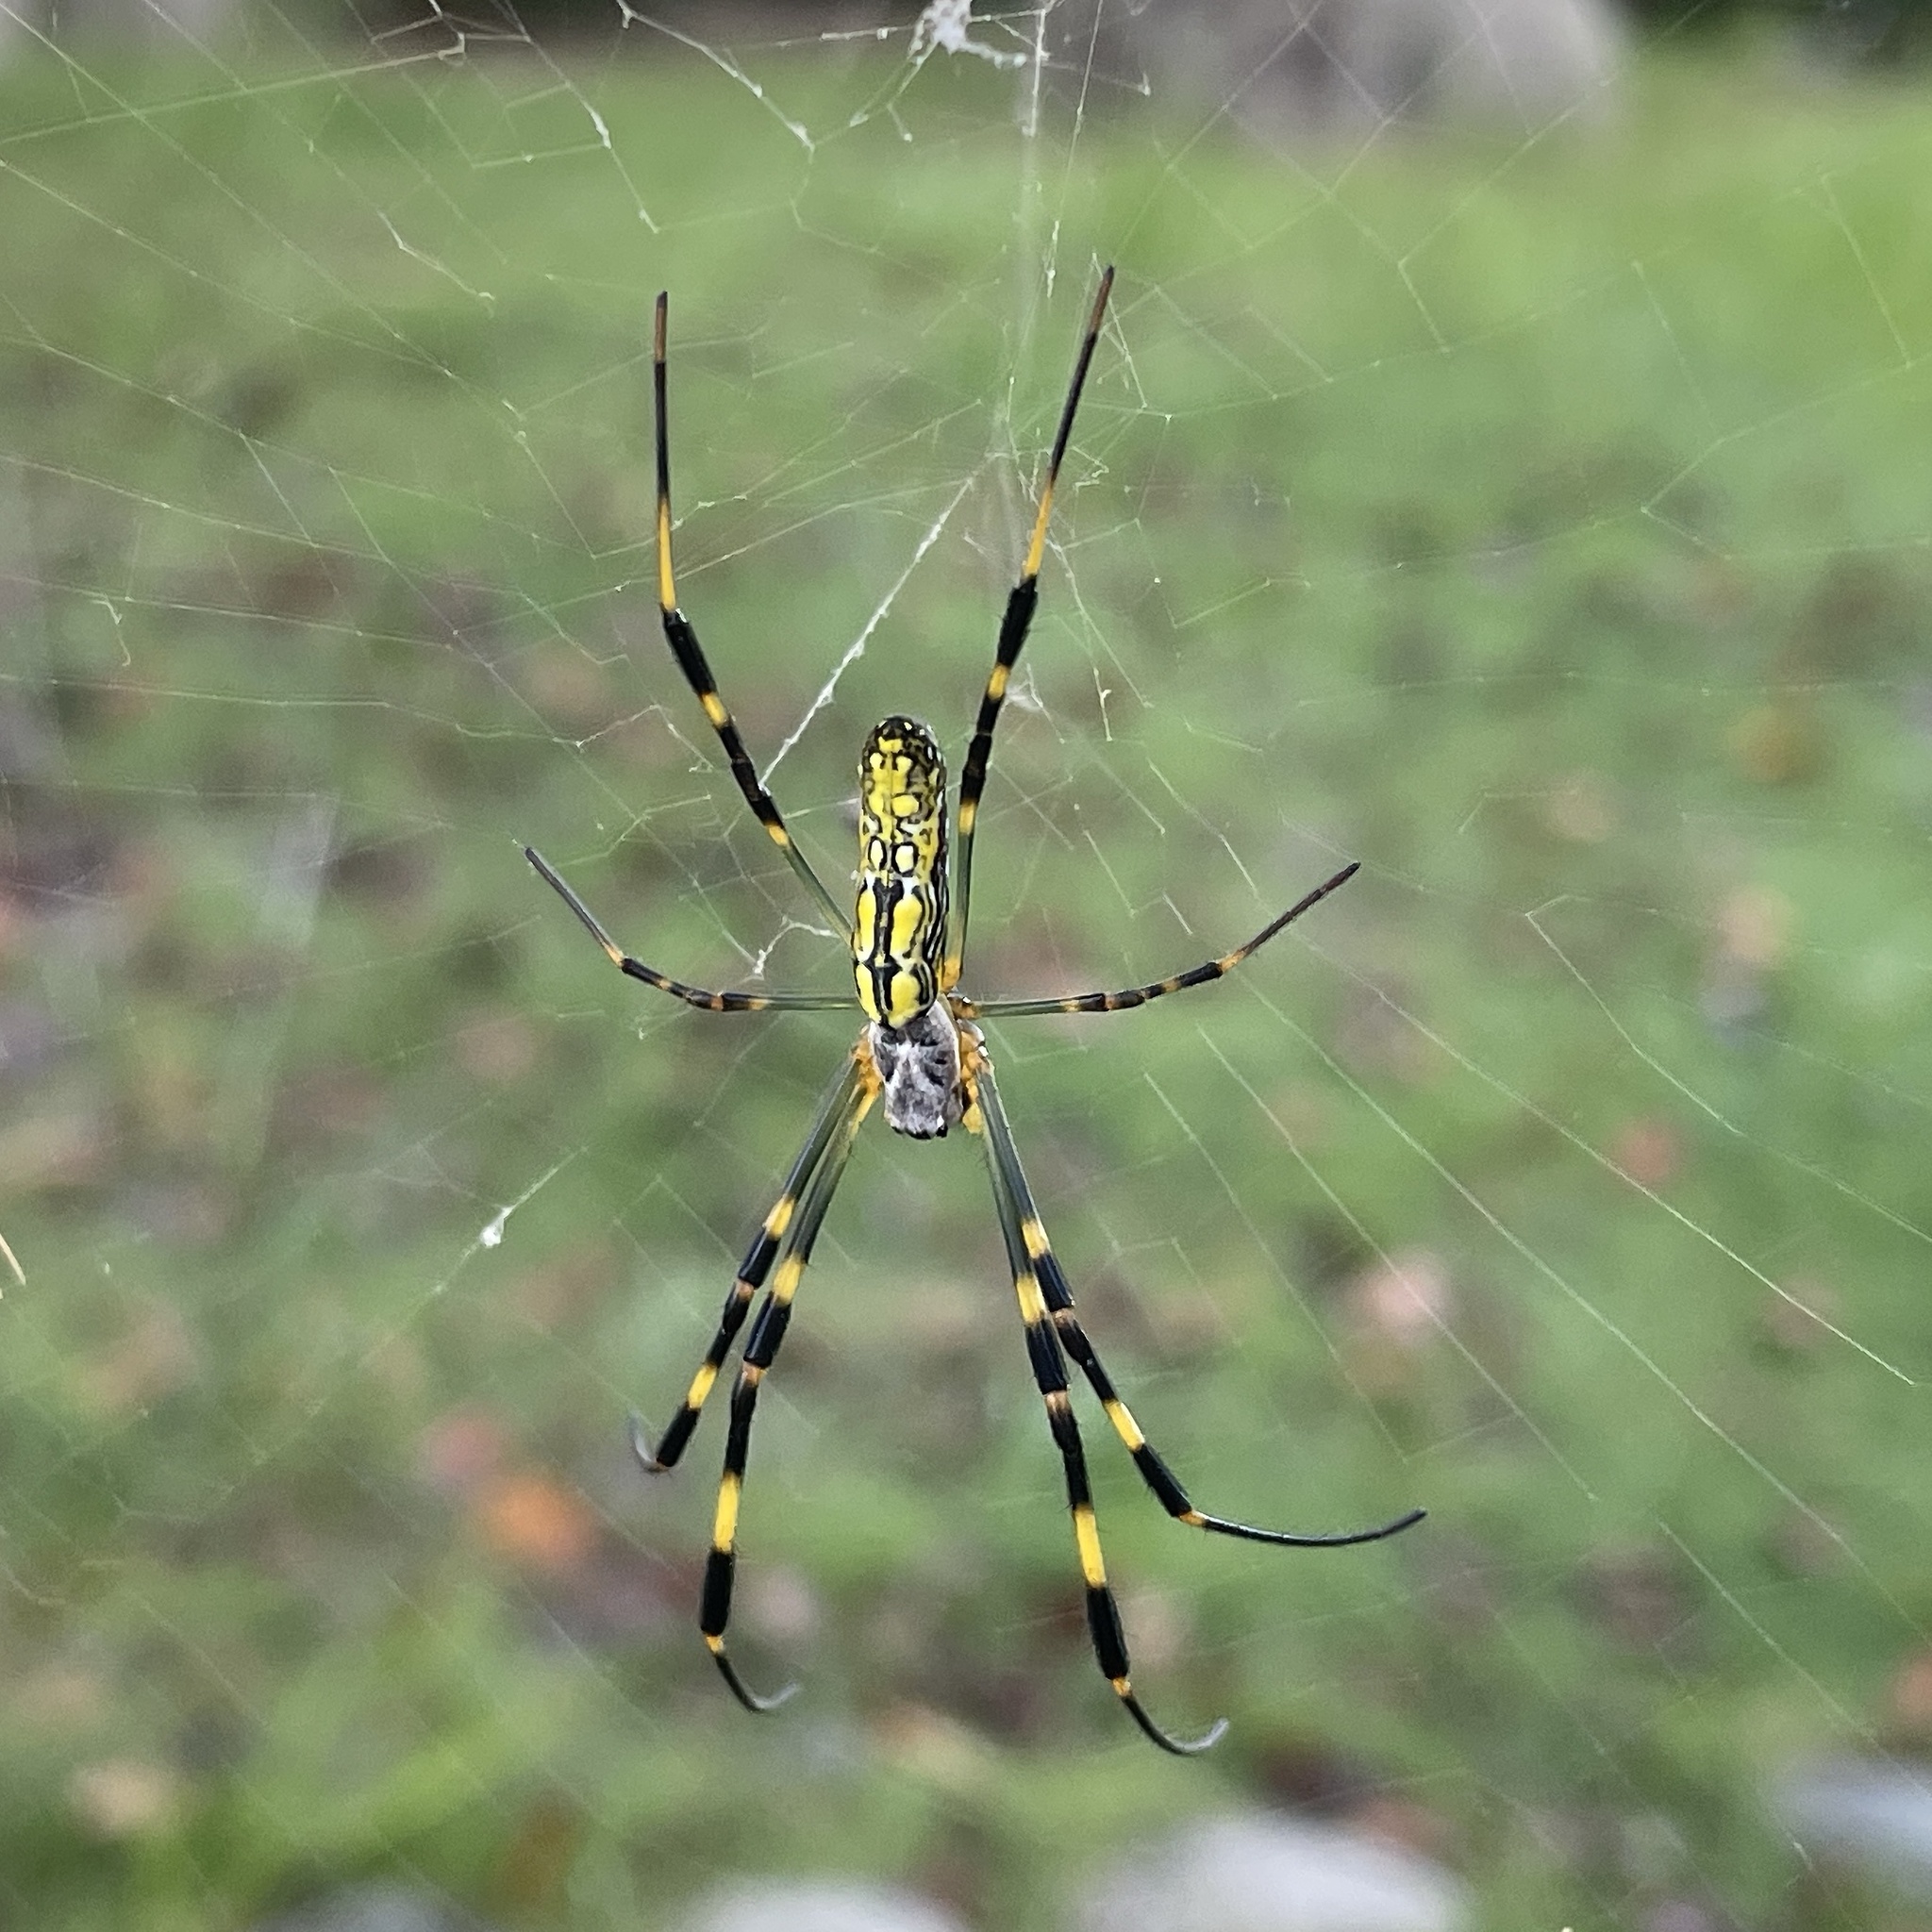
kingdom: Animalia
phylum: Arthropoda
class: Arachnida
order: Araneae
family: Araneidae
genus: Trichonephila
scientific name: Trichonephila clavata
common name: Jorō spider
